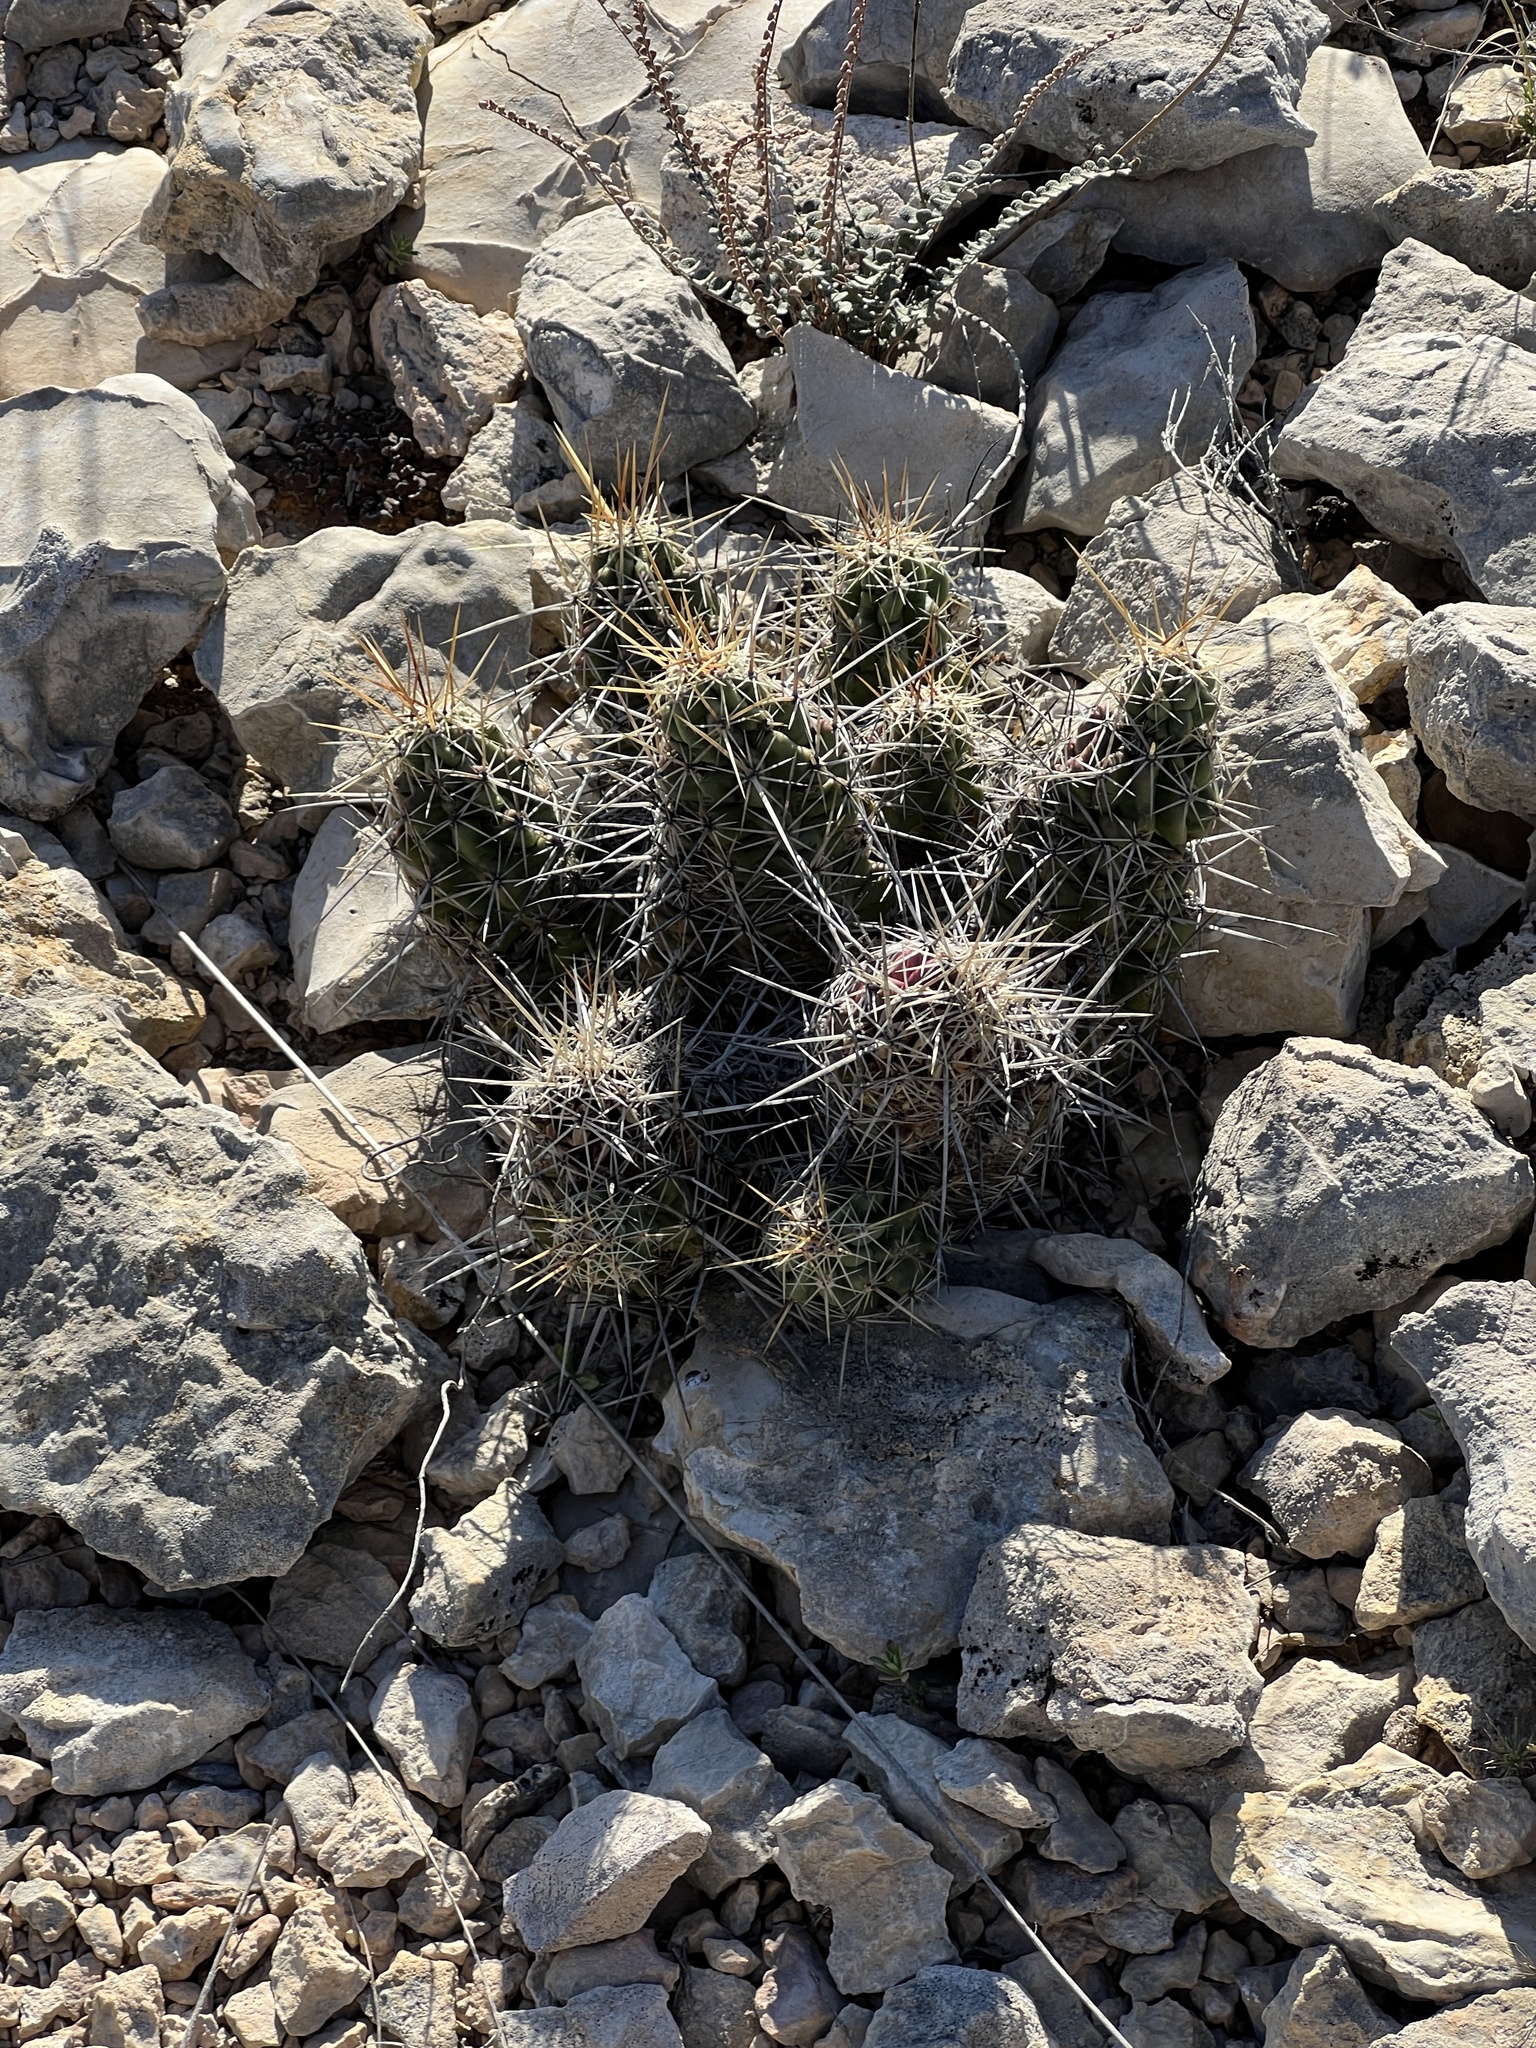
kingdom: Plantae
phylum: Tracheophyta
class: Magnoliopsida
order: Caryophyllales
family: Cactaceae
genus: Echinocereus
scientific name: Echinocereus enneacanthus
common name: Pitaya
